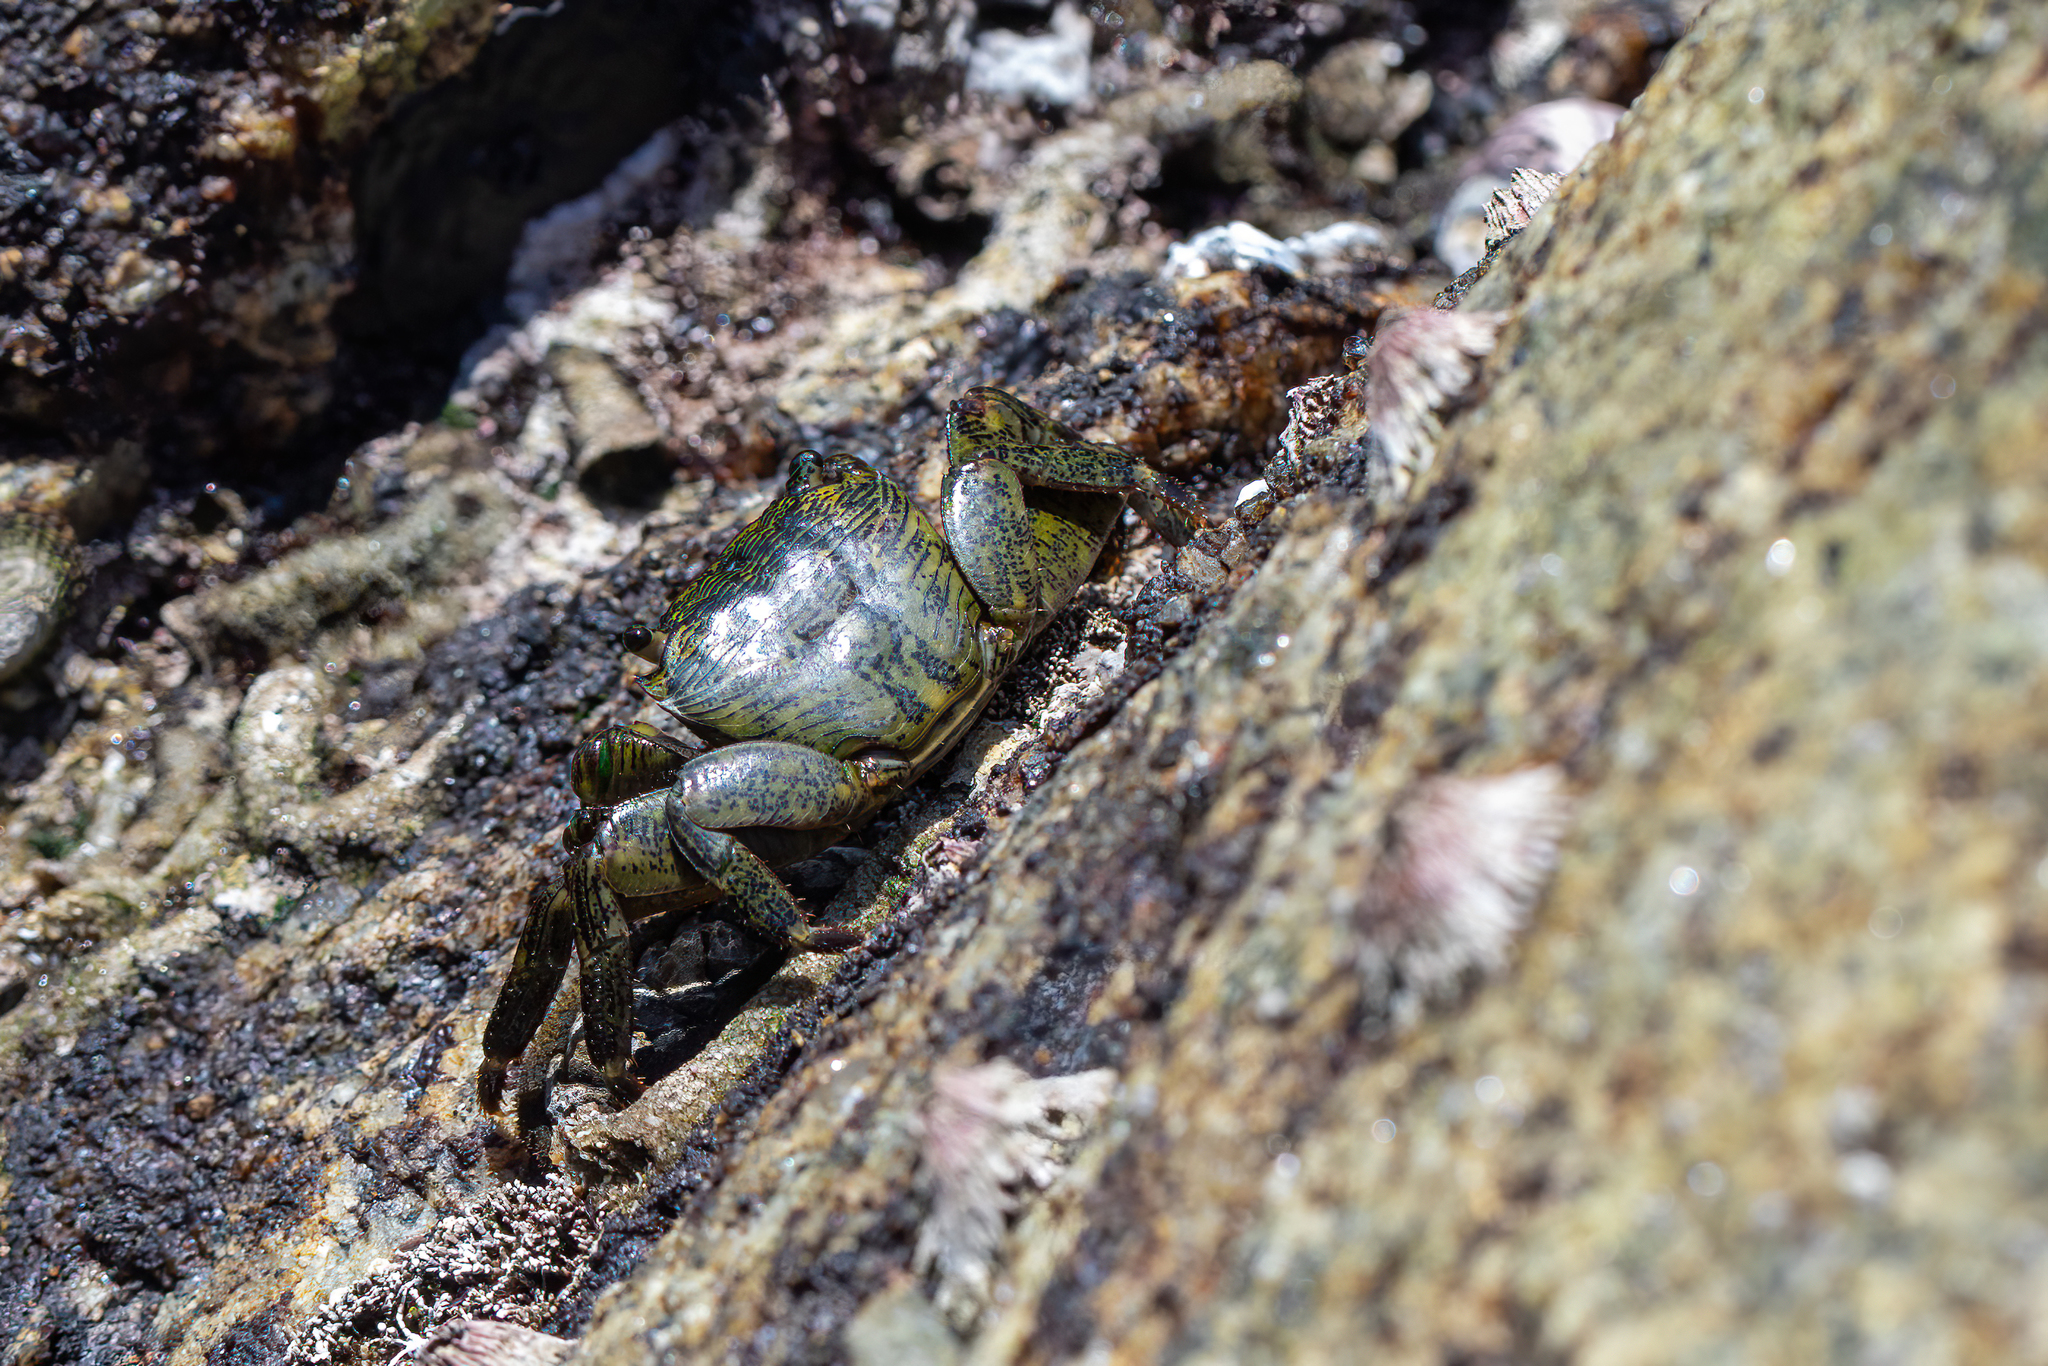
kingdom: Animalia
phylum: Arthropoda
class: Malacostraca
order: Decapoda
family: Grapsidae
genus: Pachygrapsus
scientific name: Pachygrapsus crassipes
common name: Striped shore crab
